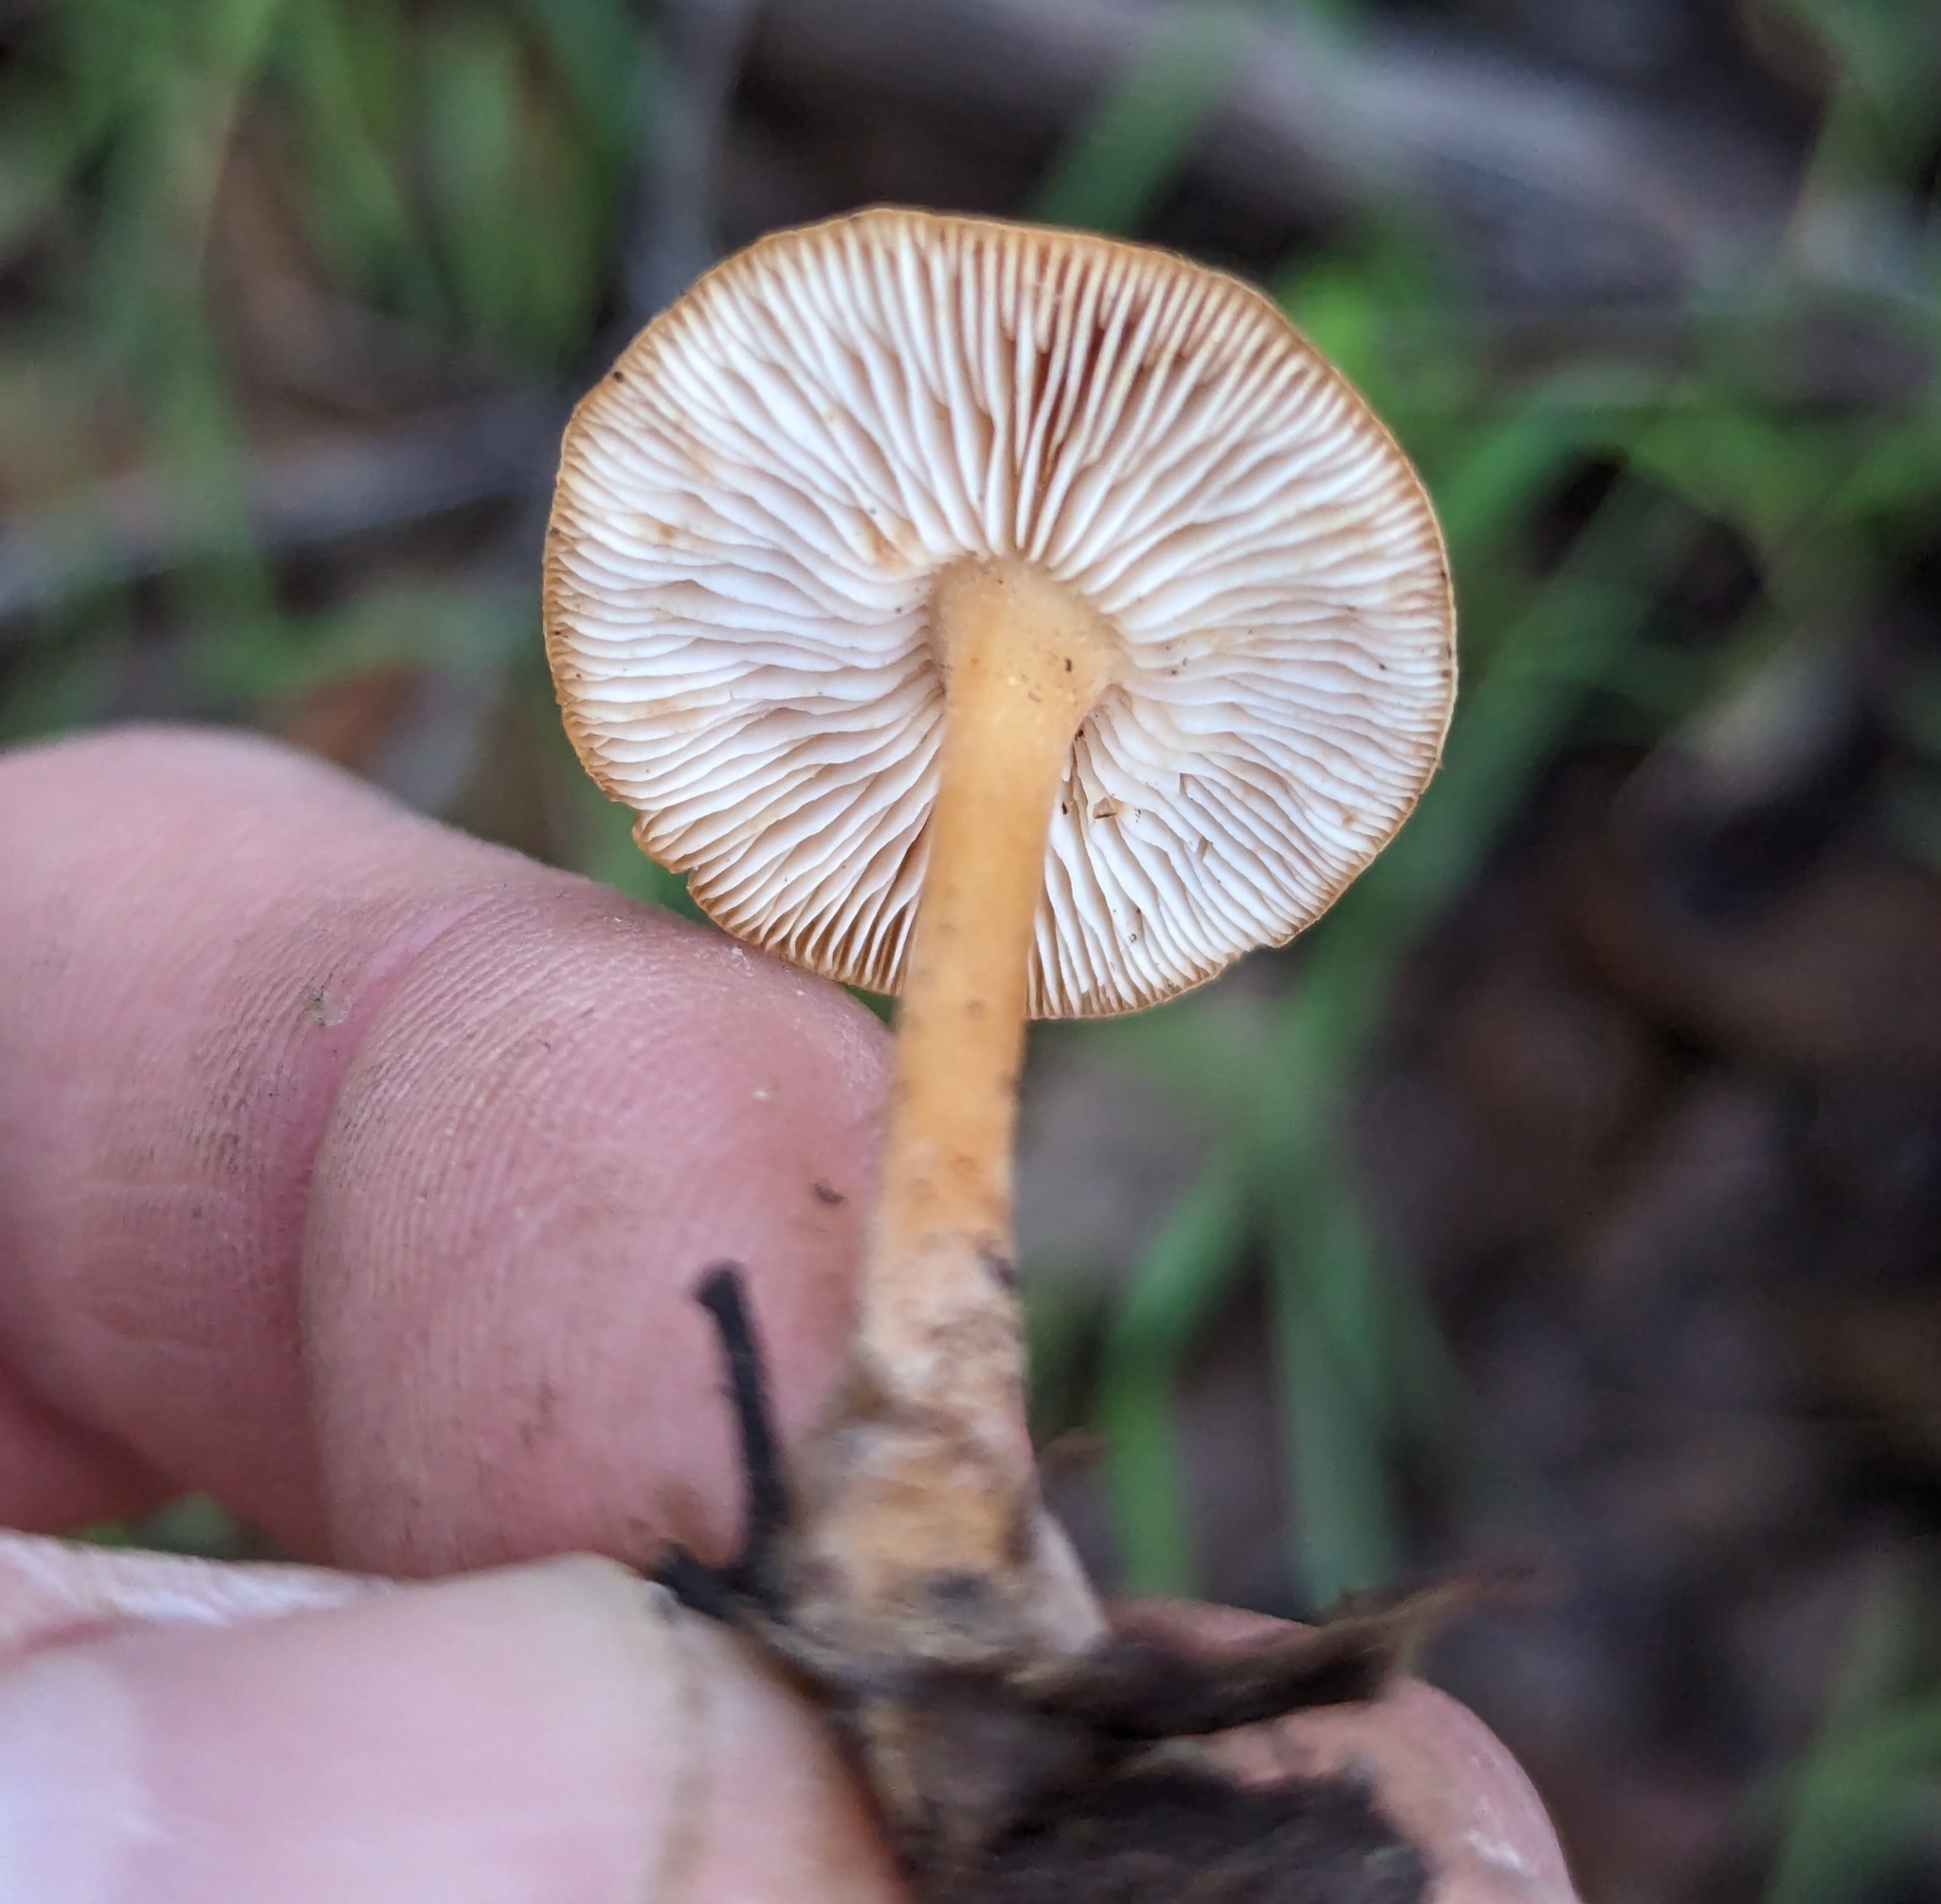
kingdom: Fungi
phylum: Basidiomycota
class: Agaricomycetes
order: Agaricales
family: Omphalotaceae
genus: Gymnopus
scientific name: Gymnopus dryophilus
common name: Penny top
